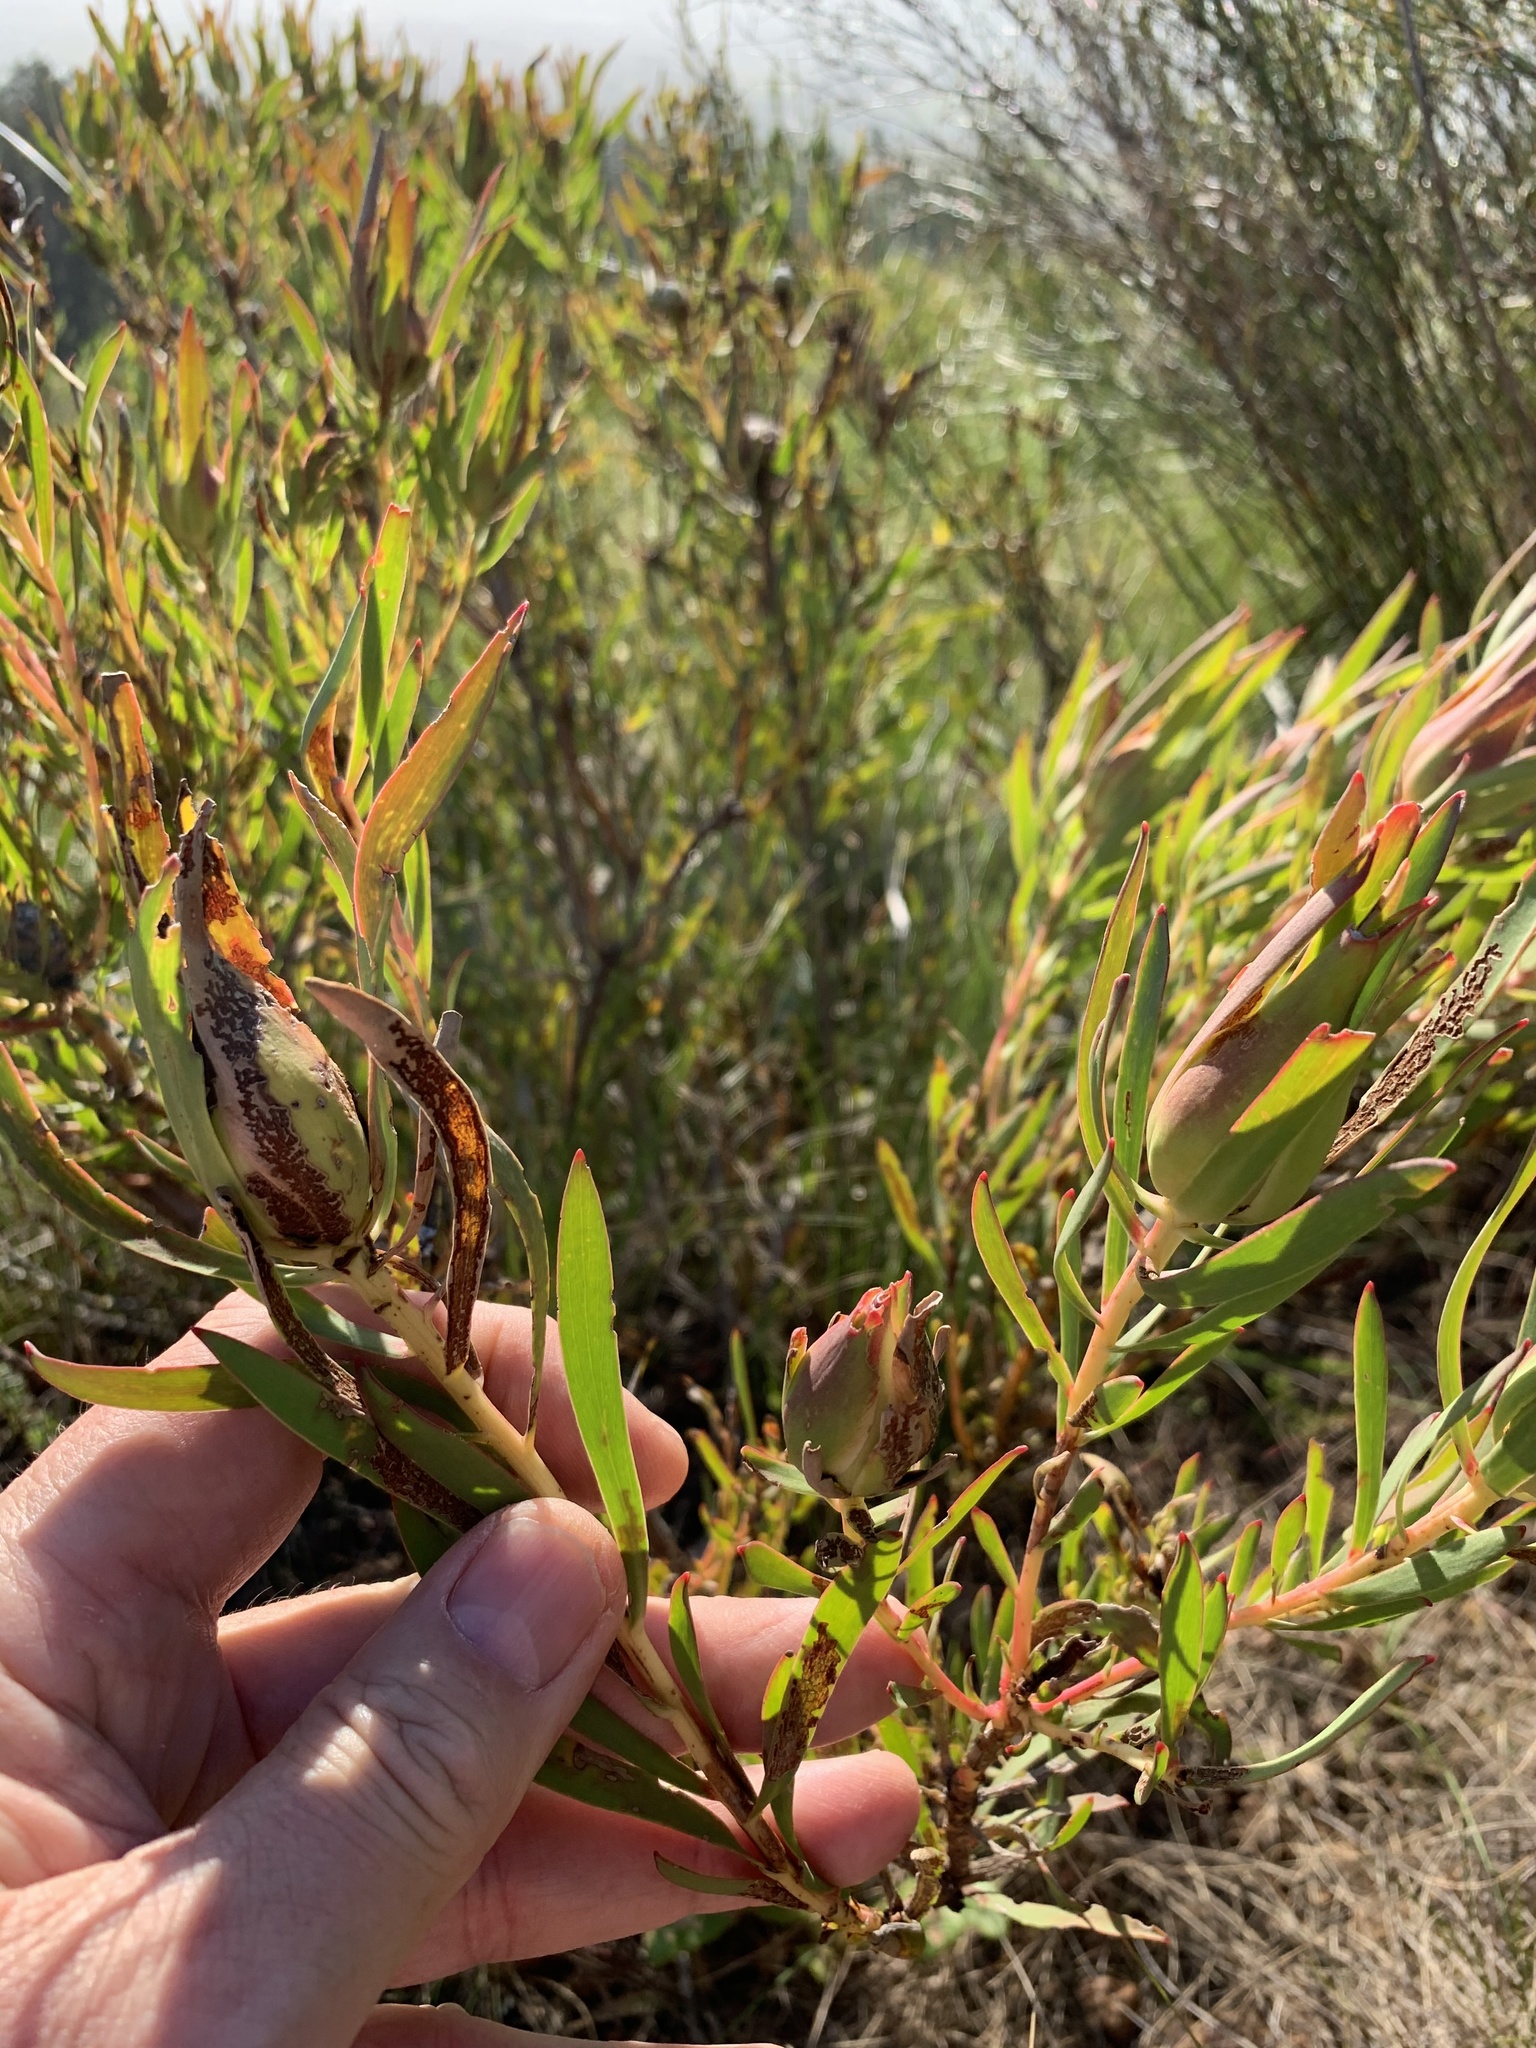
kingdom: Plantae
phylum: Tracheophyta
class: Magnoliopsida
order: Proteales
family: Proteaceae
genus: Leucadendron
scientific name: Leucadendron salignum
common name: Common sunshine conebush
